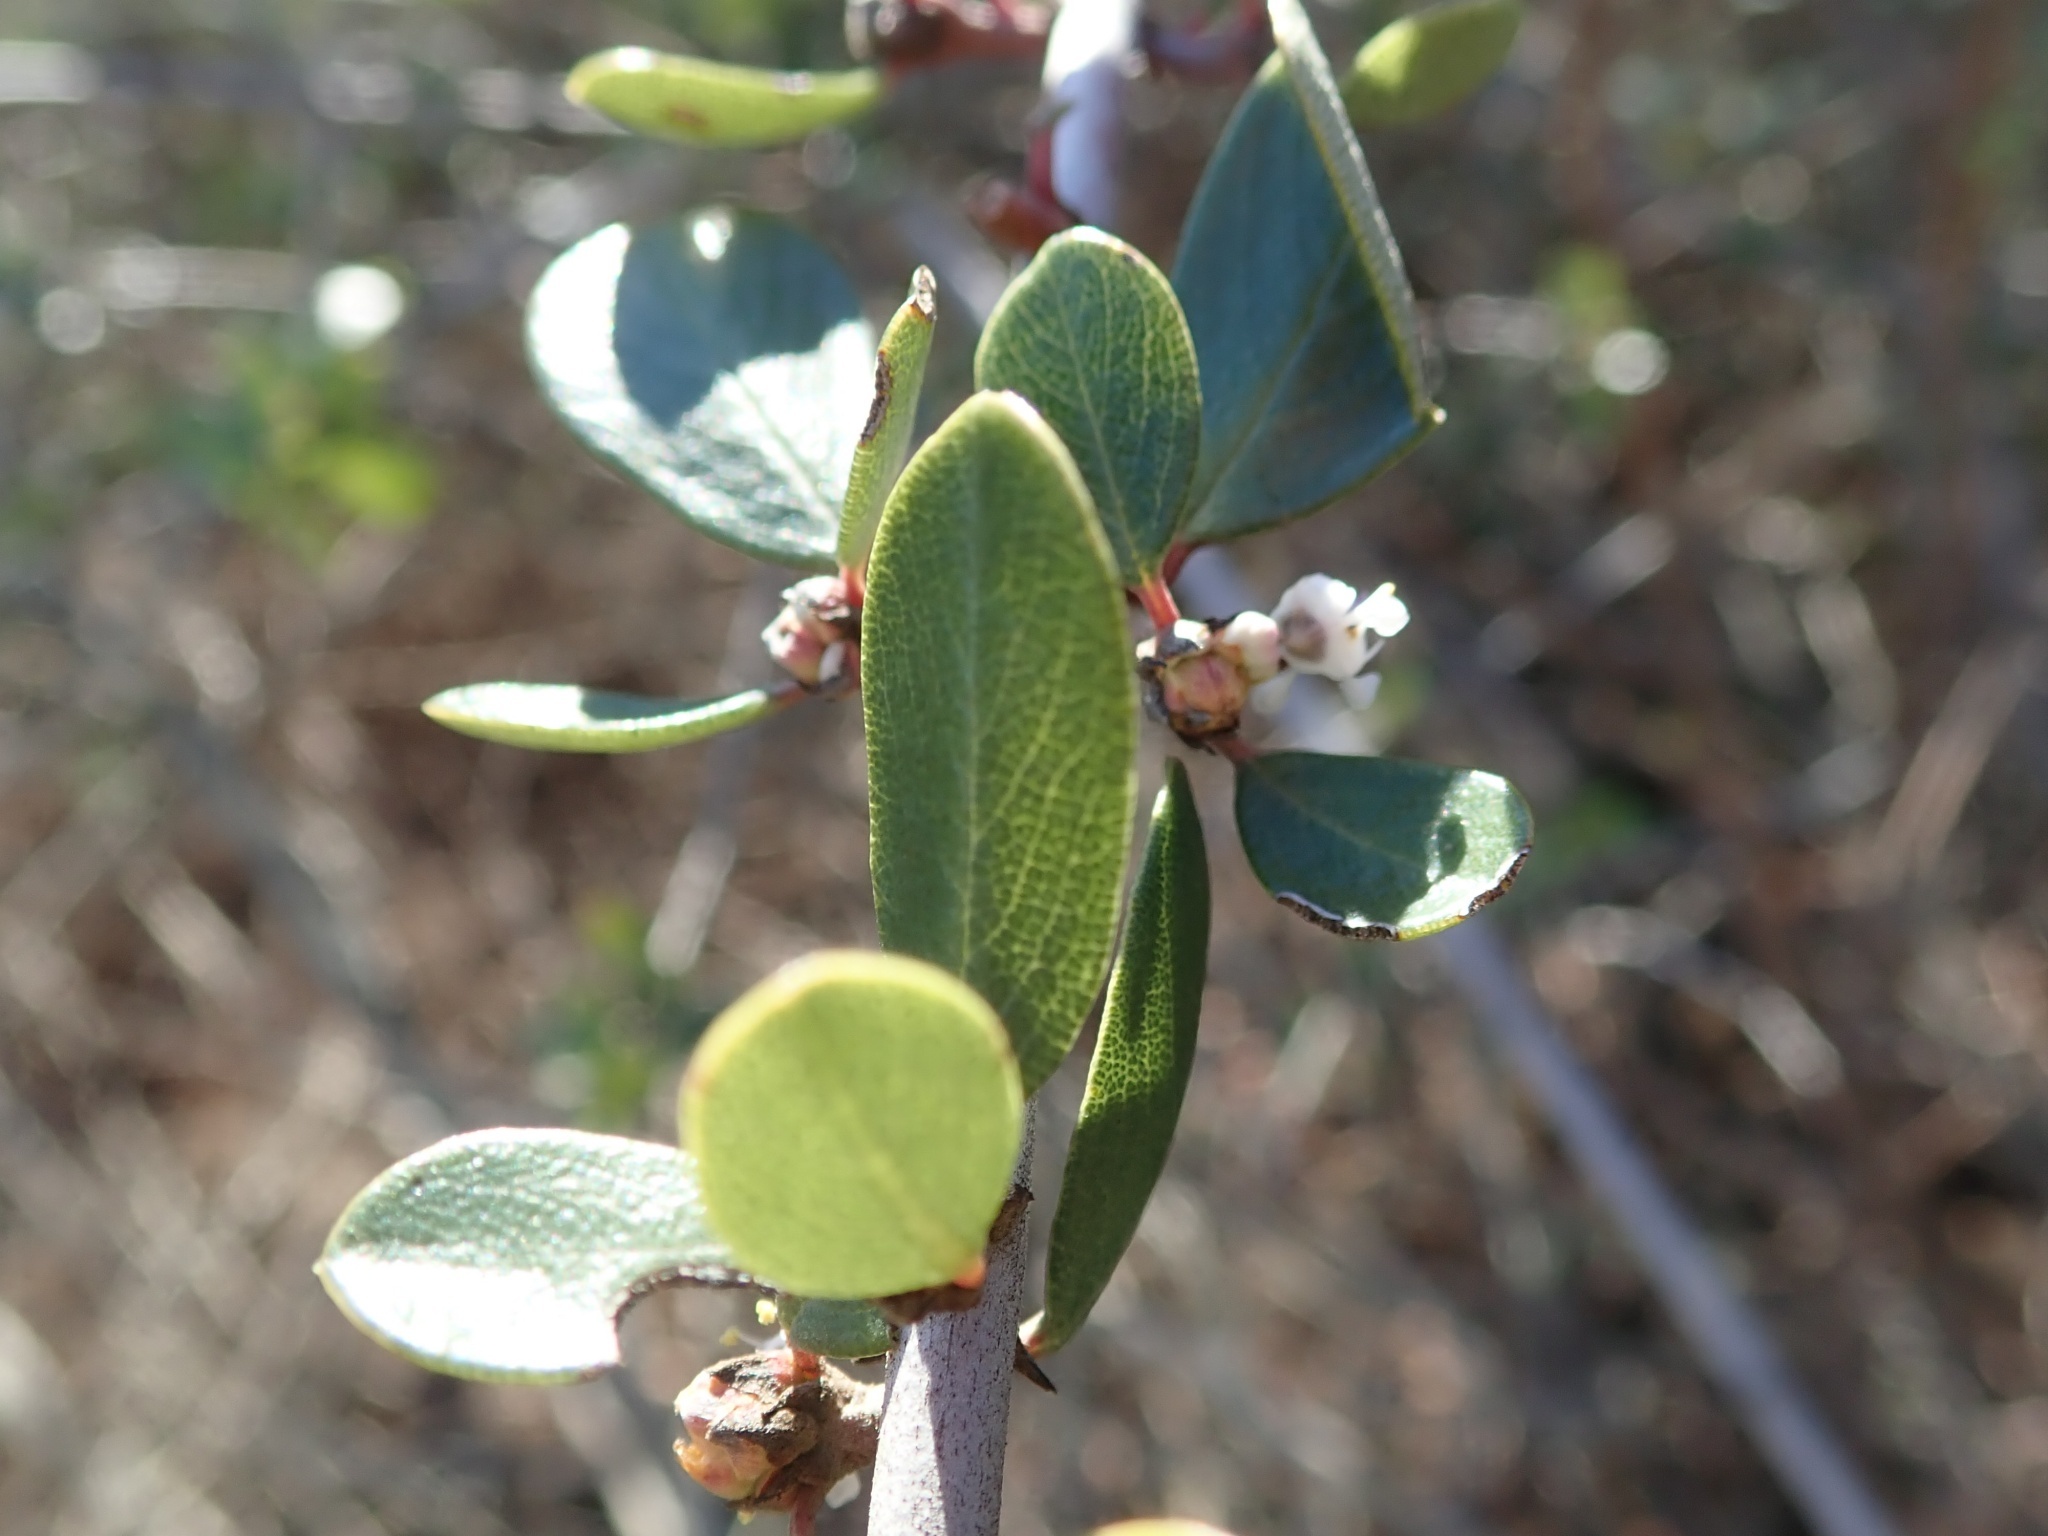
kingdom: Plantae
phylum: Tracheophyta
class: Magnoliopsida
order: Rosales
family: Rhamnaceae
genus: Ceanothus
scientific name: Ceanothus cuneatus
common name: Cuneate ceanothus
